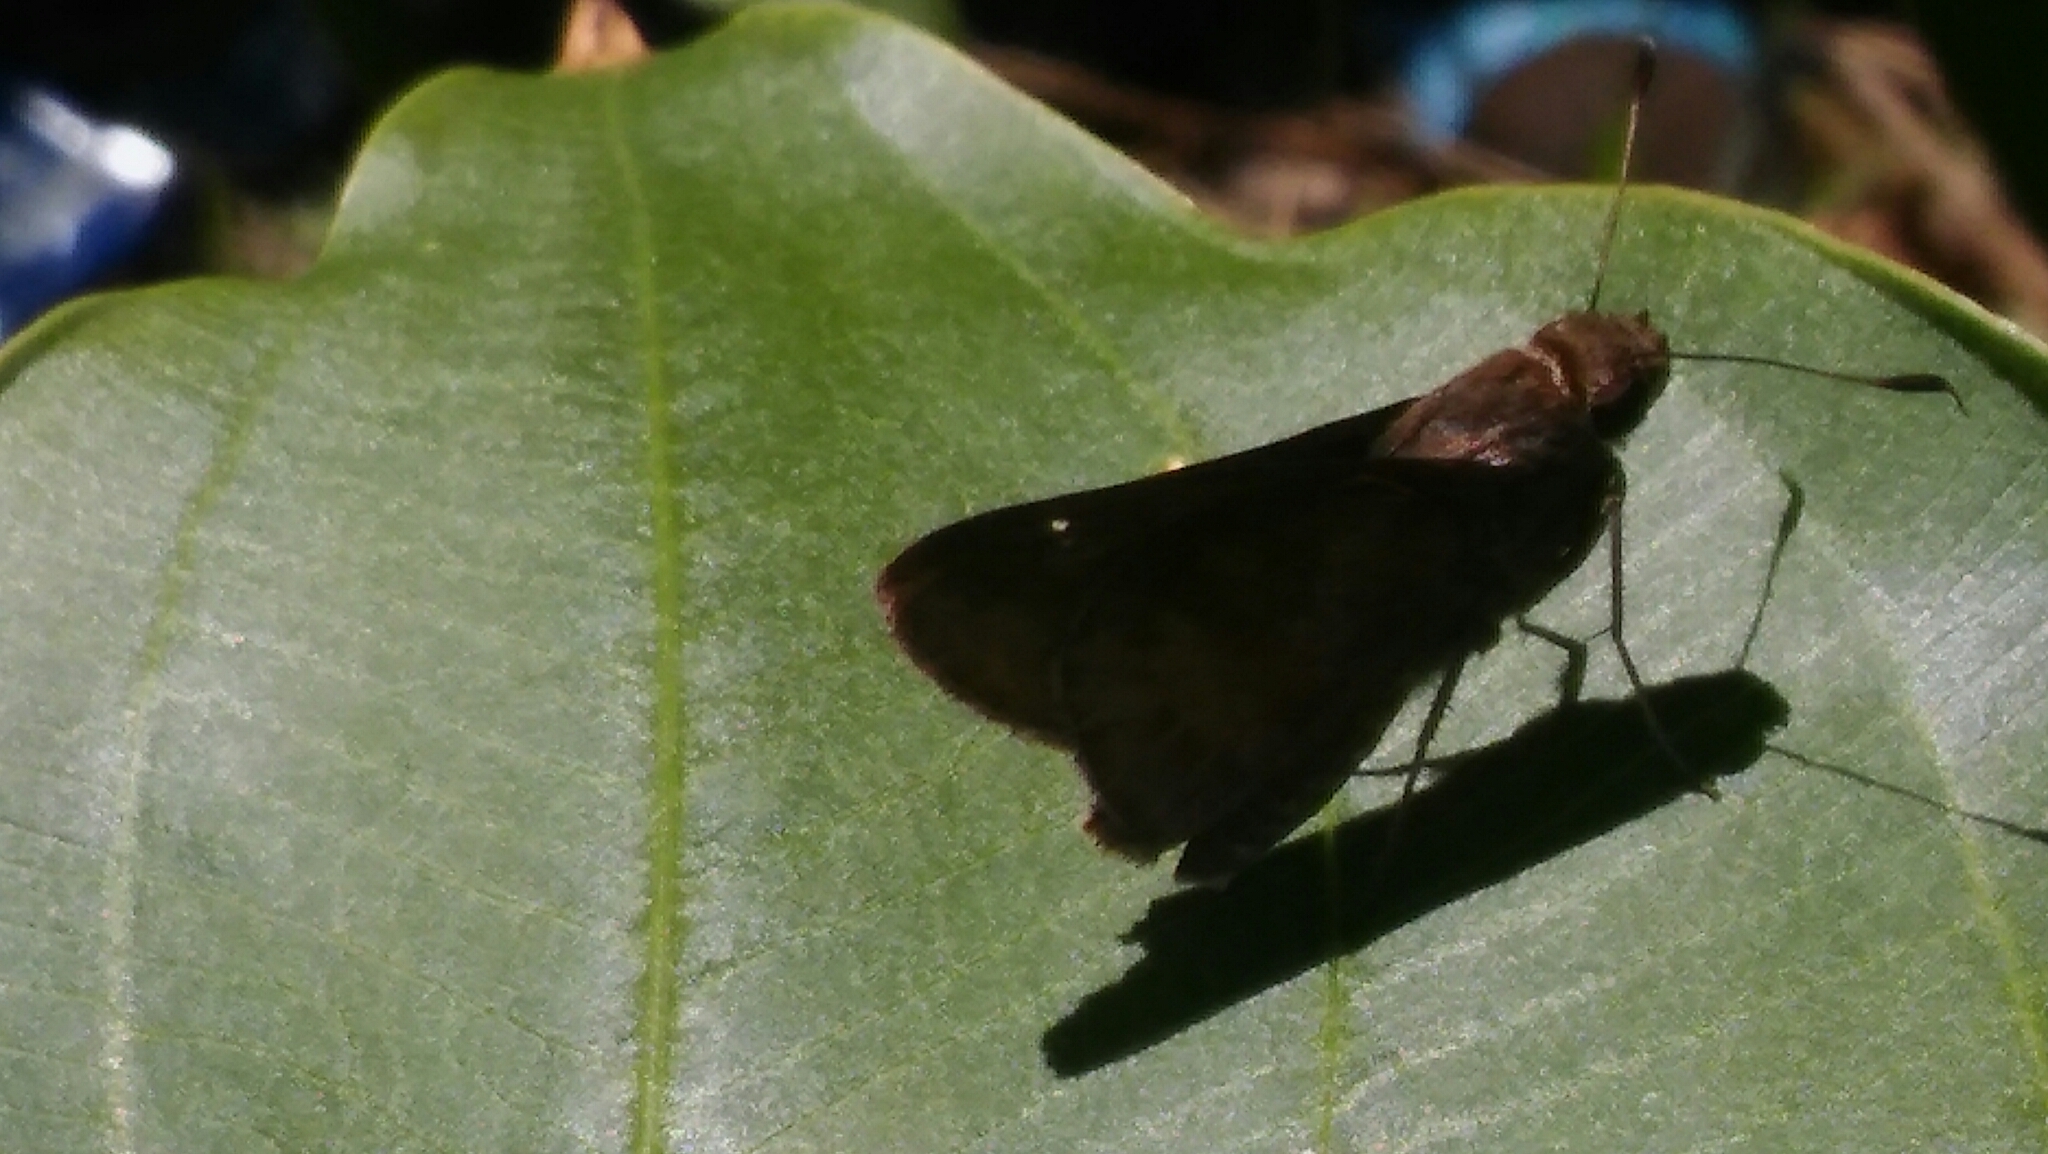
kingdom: Animalia
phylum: Arthropoda
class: Insecta
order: Lepidoptera
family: Hesperiidae
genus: Quinta
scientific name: Quinta cannae
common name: Canna skipper
